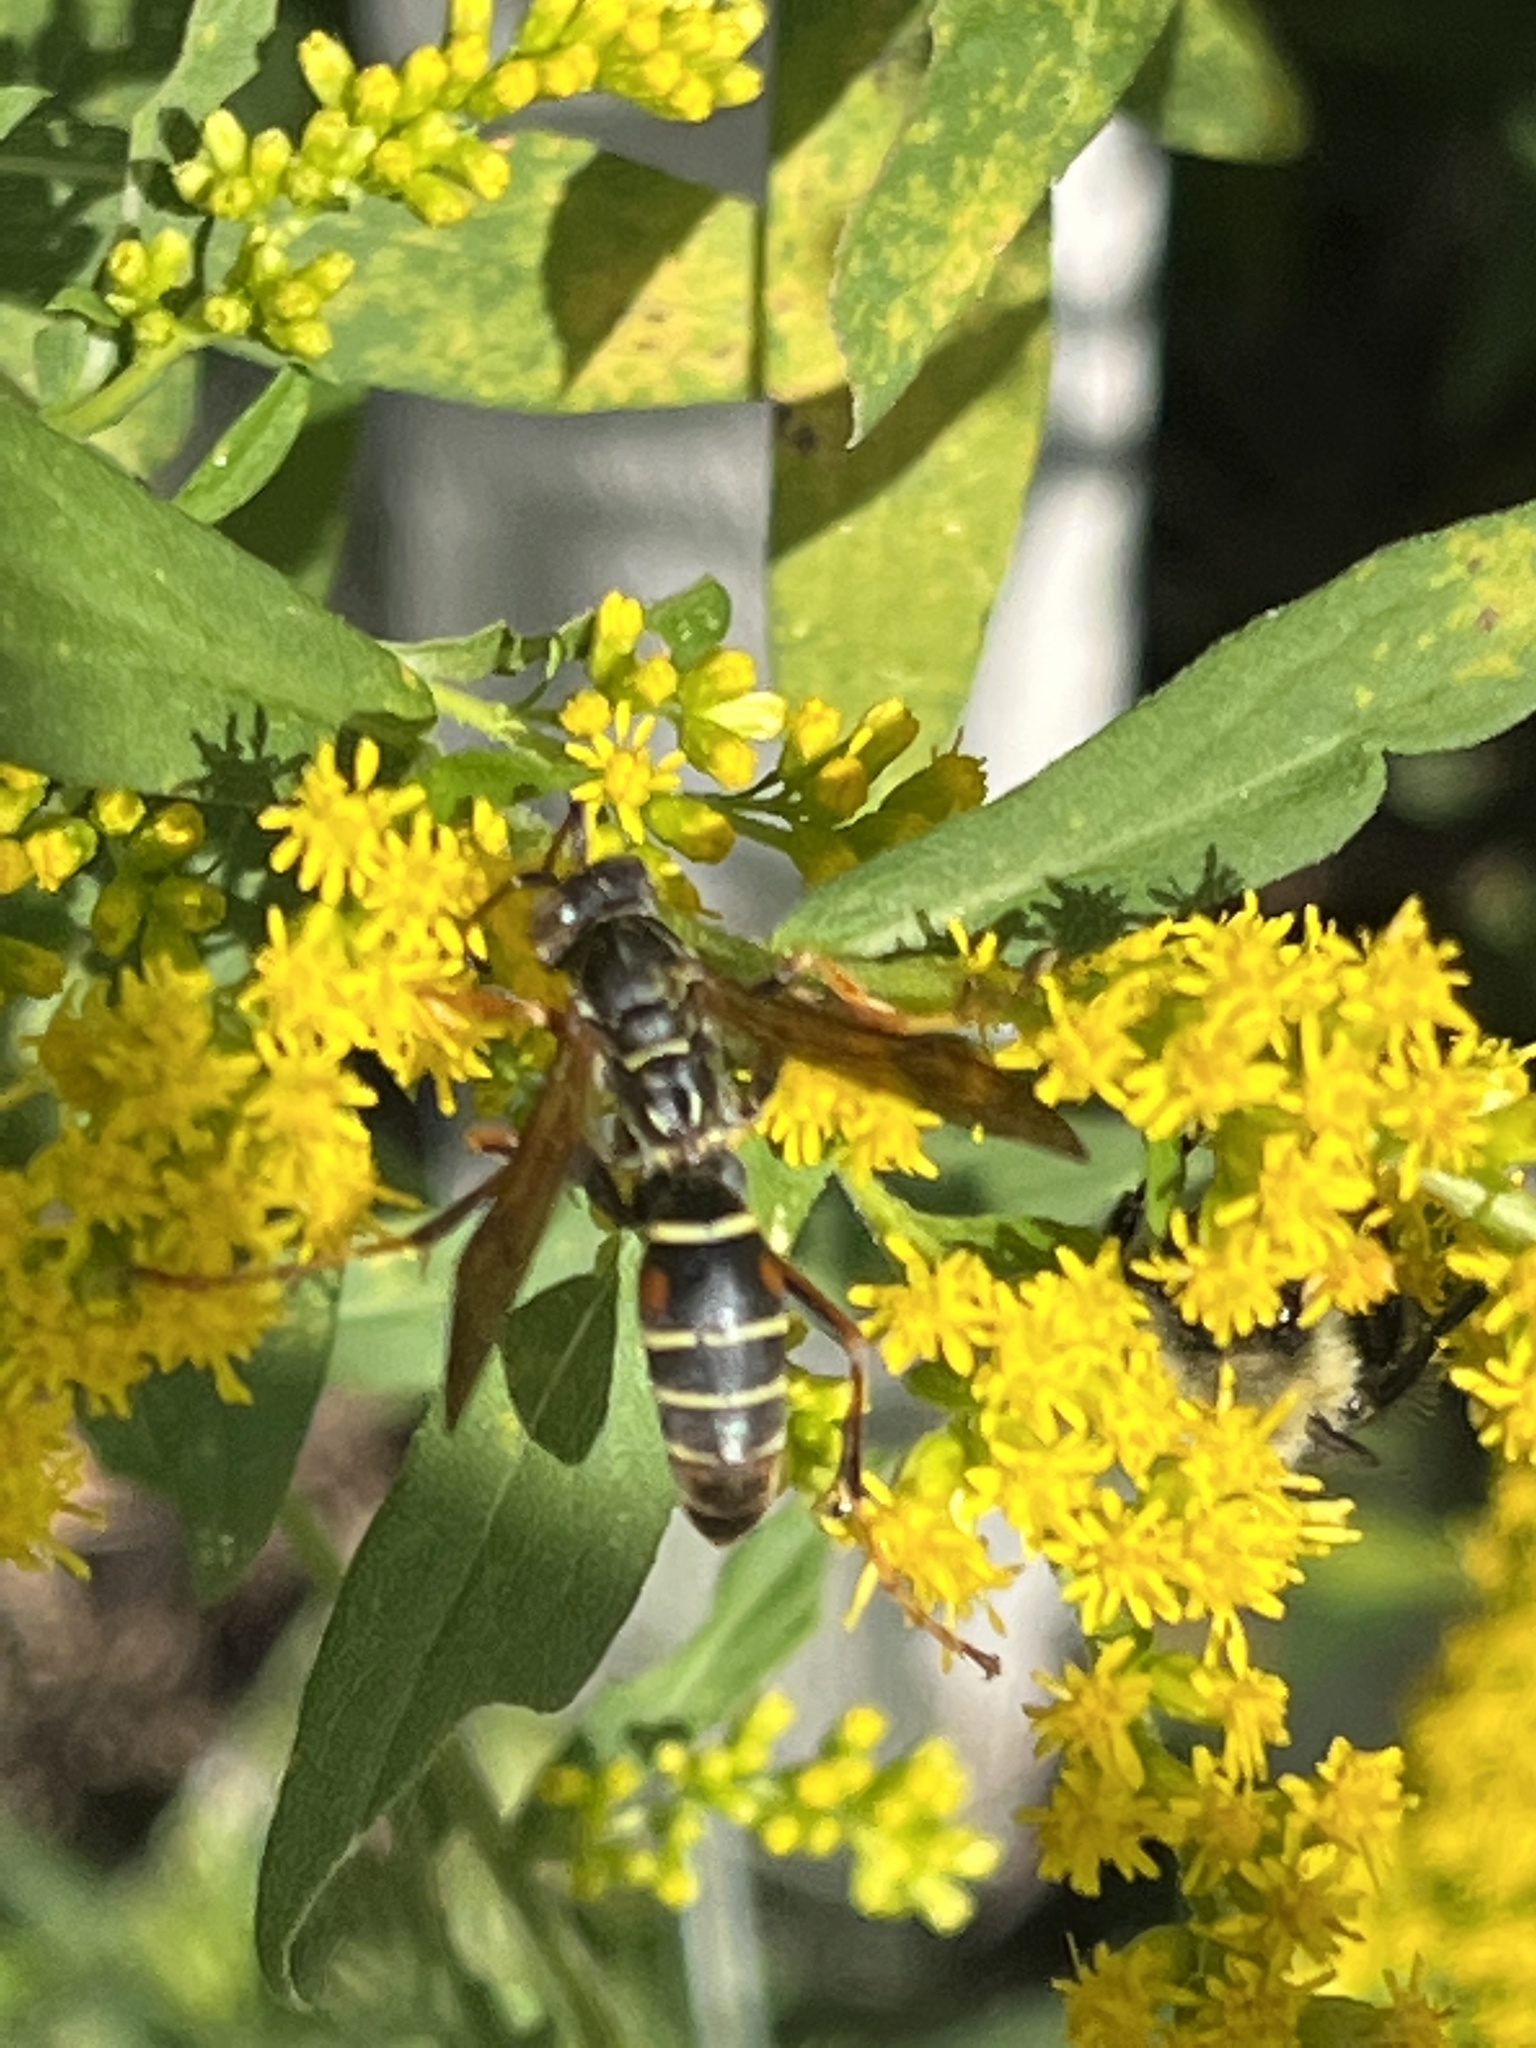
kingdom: Animalia
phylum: Arthropoda
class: Insecta
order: Hymenoptera
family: Eumenidae
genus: Polistes
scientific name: Polistes fuscatus
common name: Dark paper wasp
